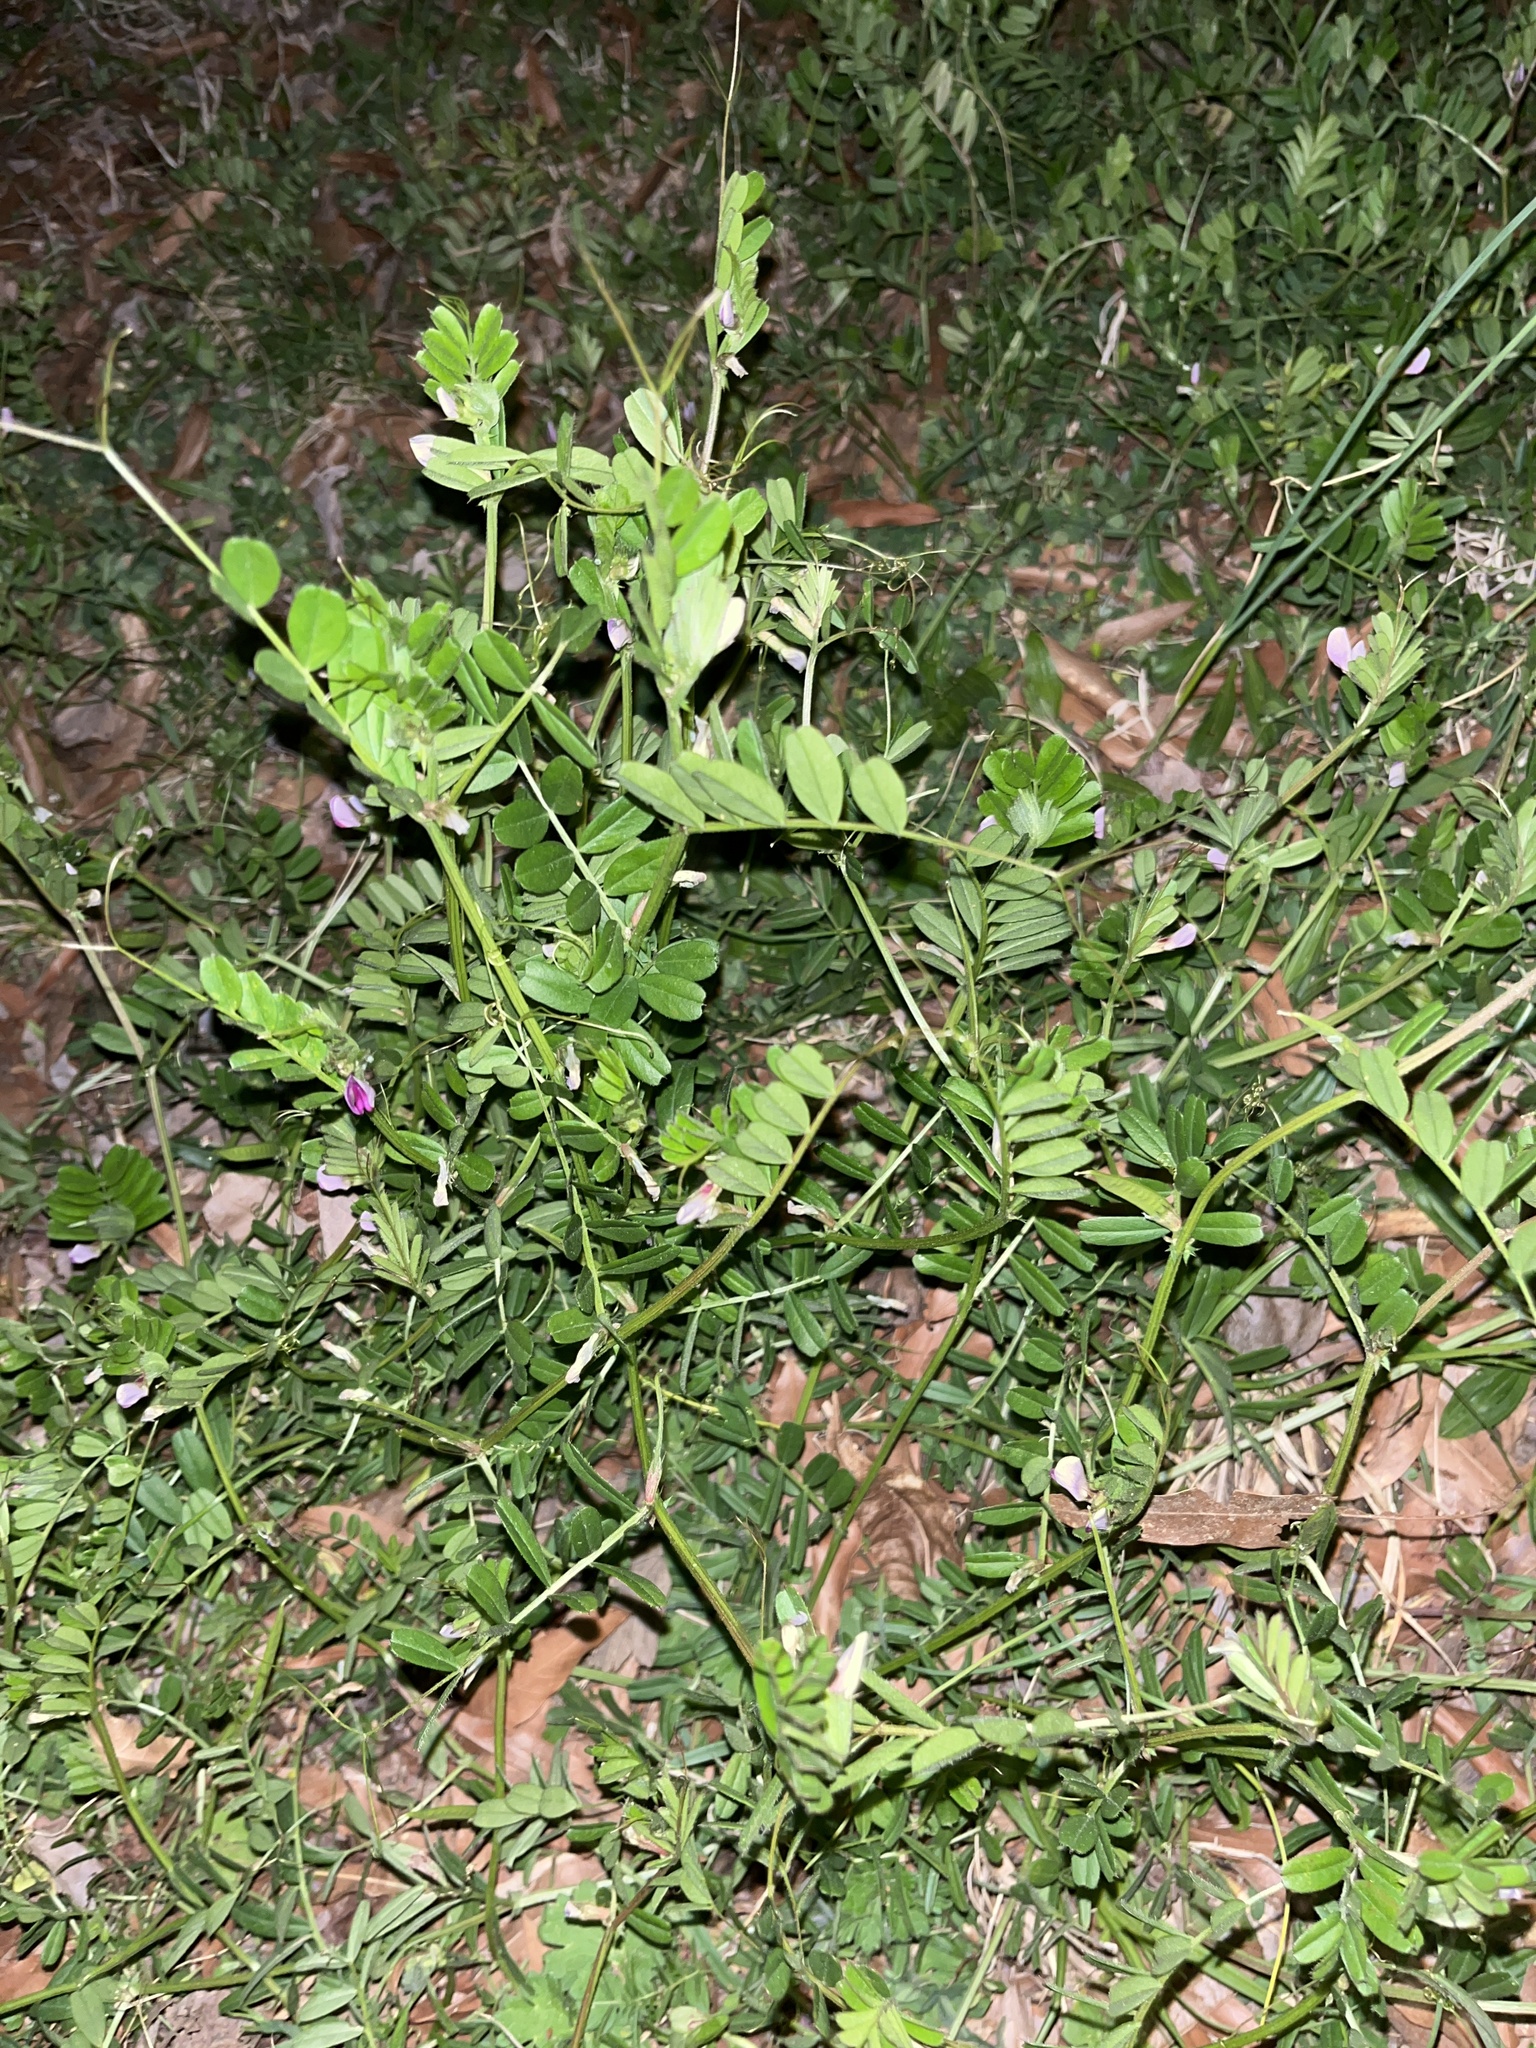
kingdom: Plantae
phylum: Tracheophyta
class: Magnoliopsida
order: Fabales
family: Fabaceae
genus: Vicia
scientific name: Vicia sativa
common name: Garden vetch
